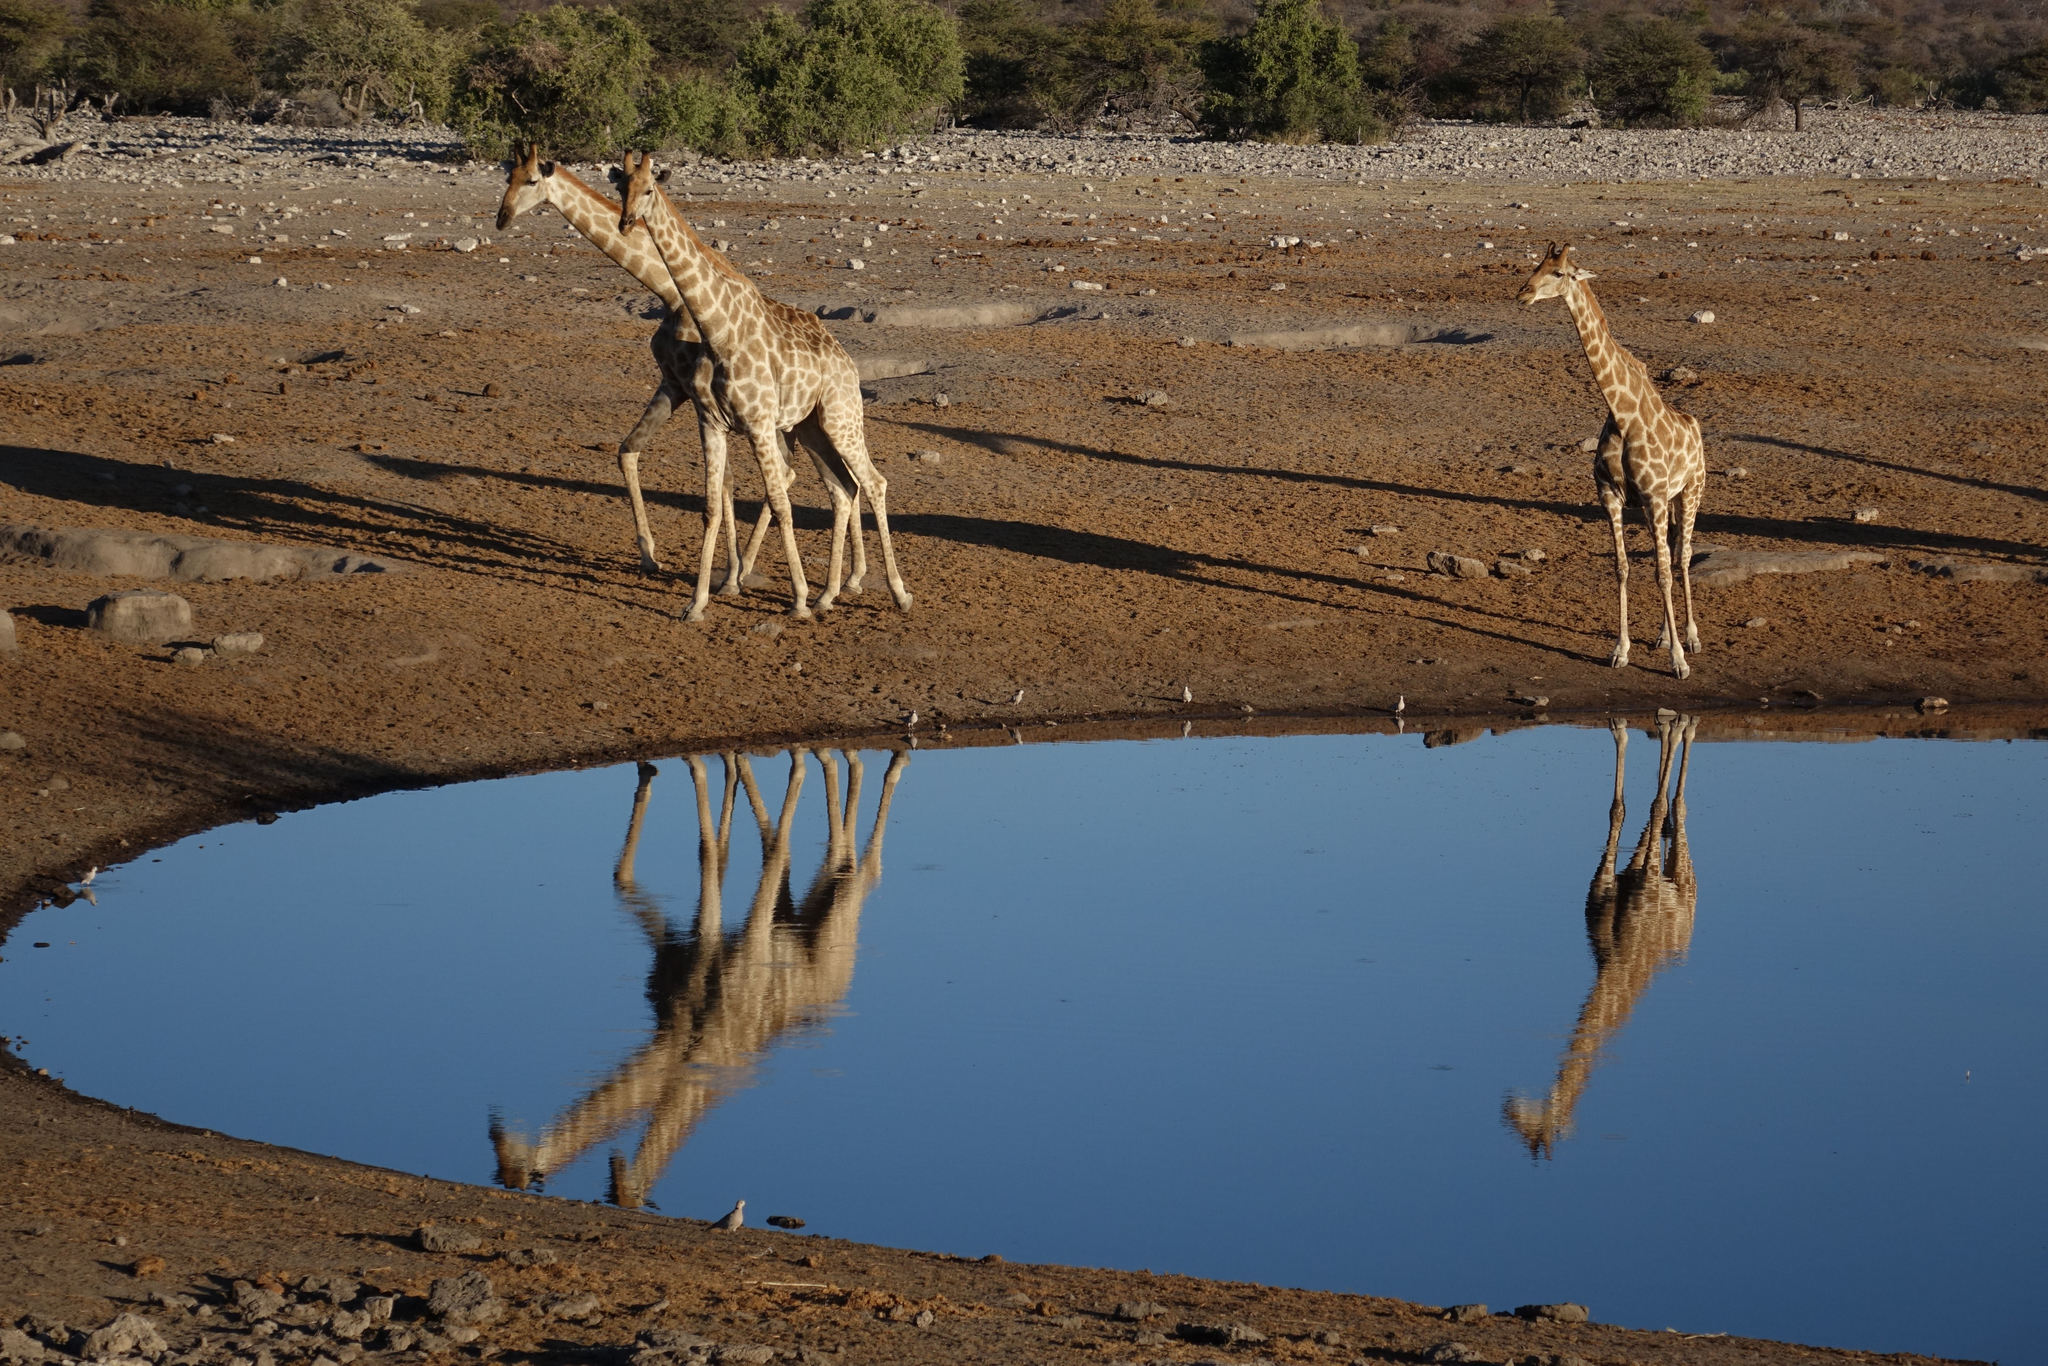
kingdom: Animalia
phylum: Chordata
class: Mammalia
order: Artiodactyla
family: Giraffidae
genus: Giraffa
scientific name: Giraffa giraffa
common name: Southern giraffe
